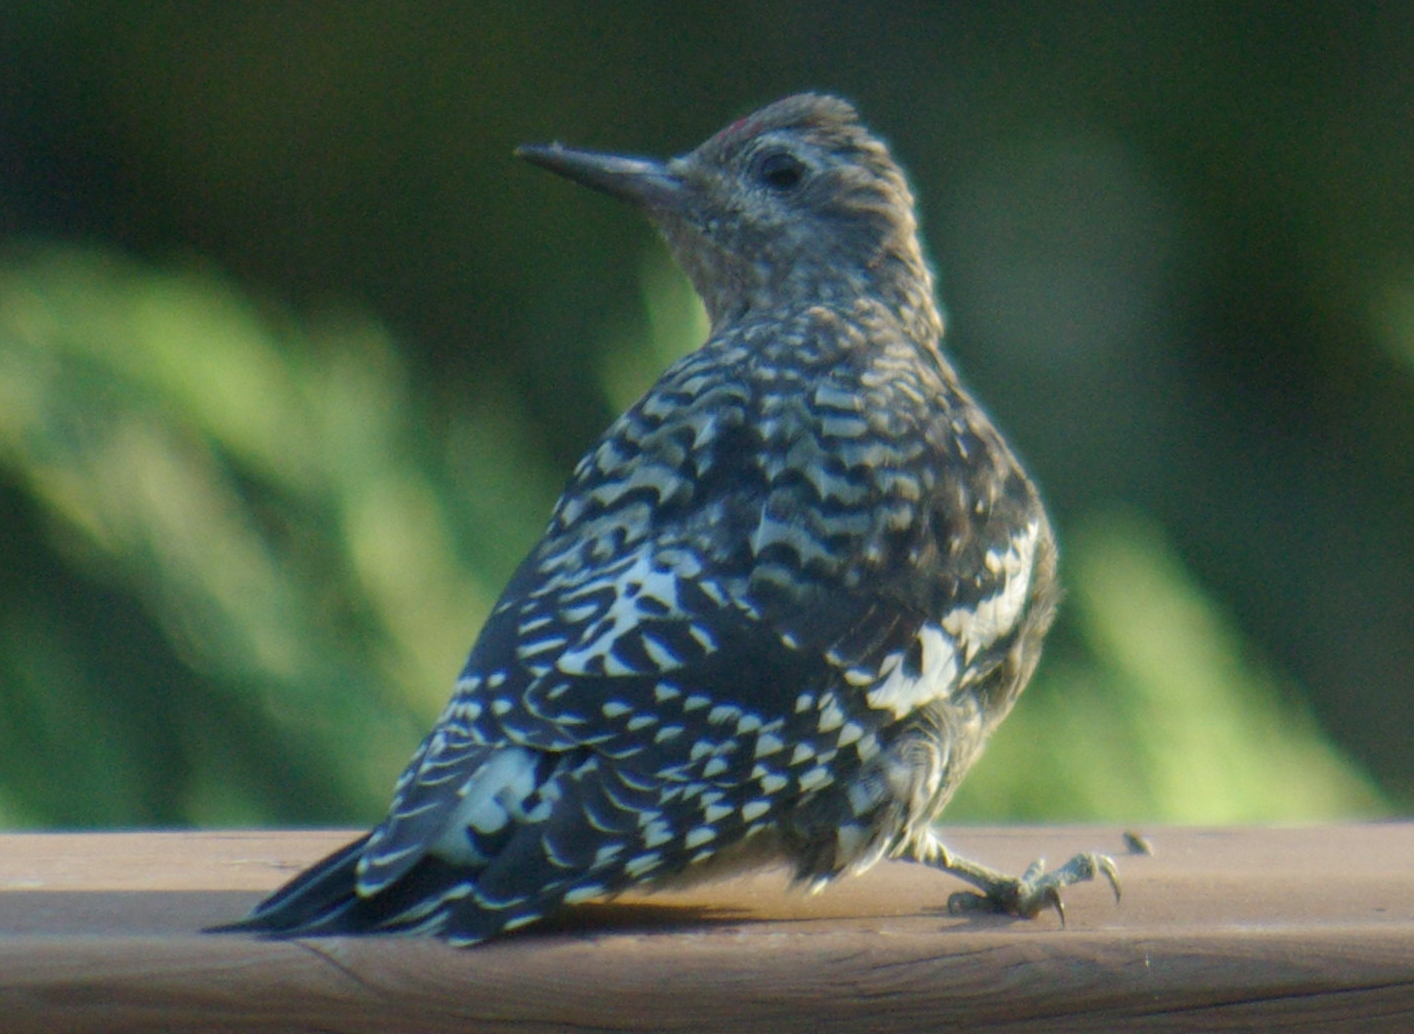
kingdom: Animalia
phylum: Chordata
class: Aves
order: Piciformes
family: Picidae
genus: Sphyrapicus
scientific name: Sphyrapicus varius
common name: Yellow-bellied sapsucker
